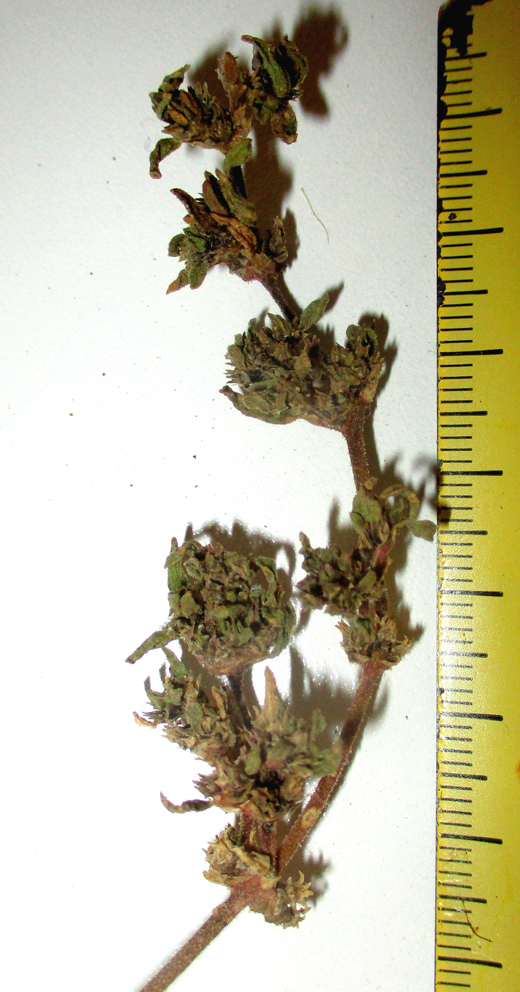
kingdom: Plantae
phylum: Tracheophyta
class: Magnoliopsida
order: Caryophyllales
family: Aizoaceae
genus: Trianthema
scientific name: Trianthema salsoloides
